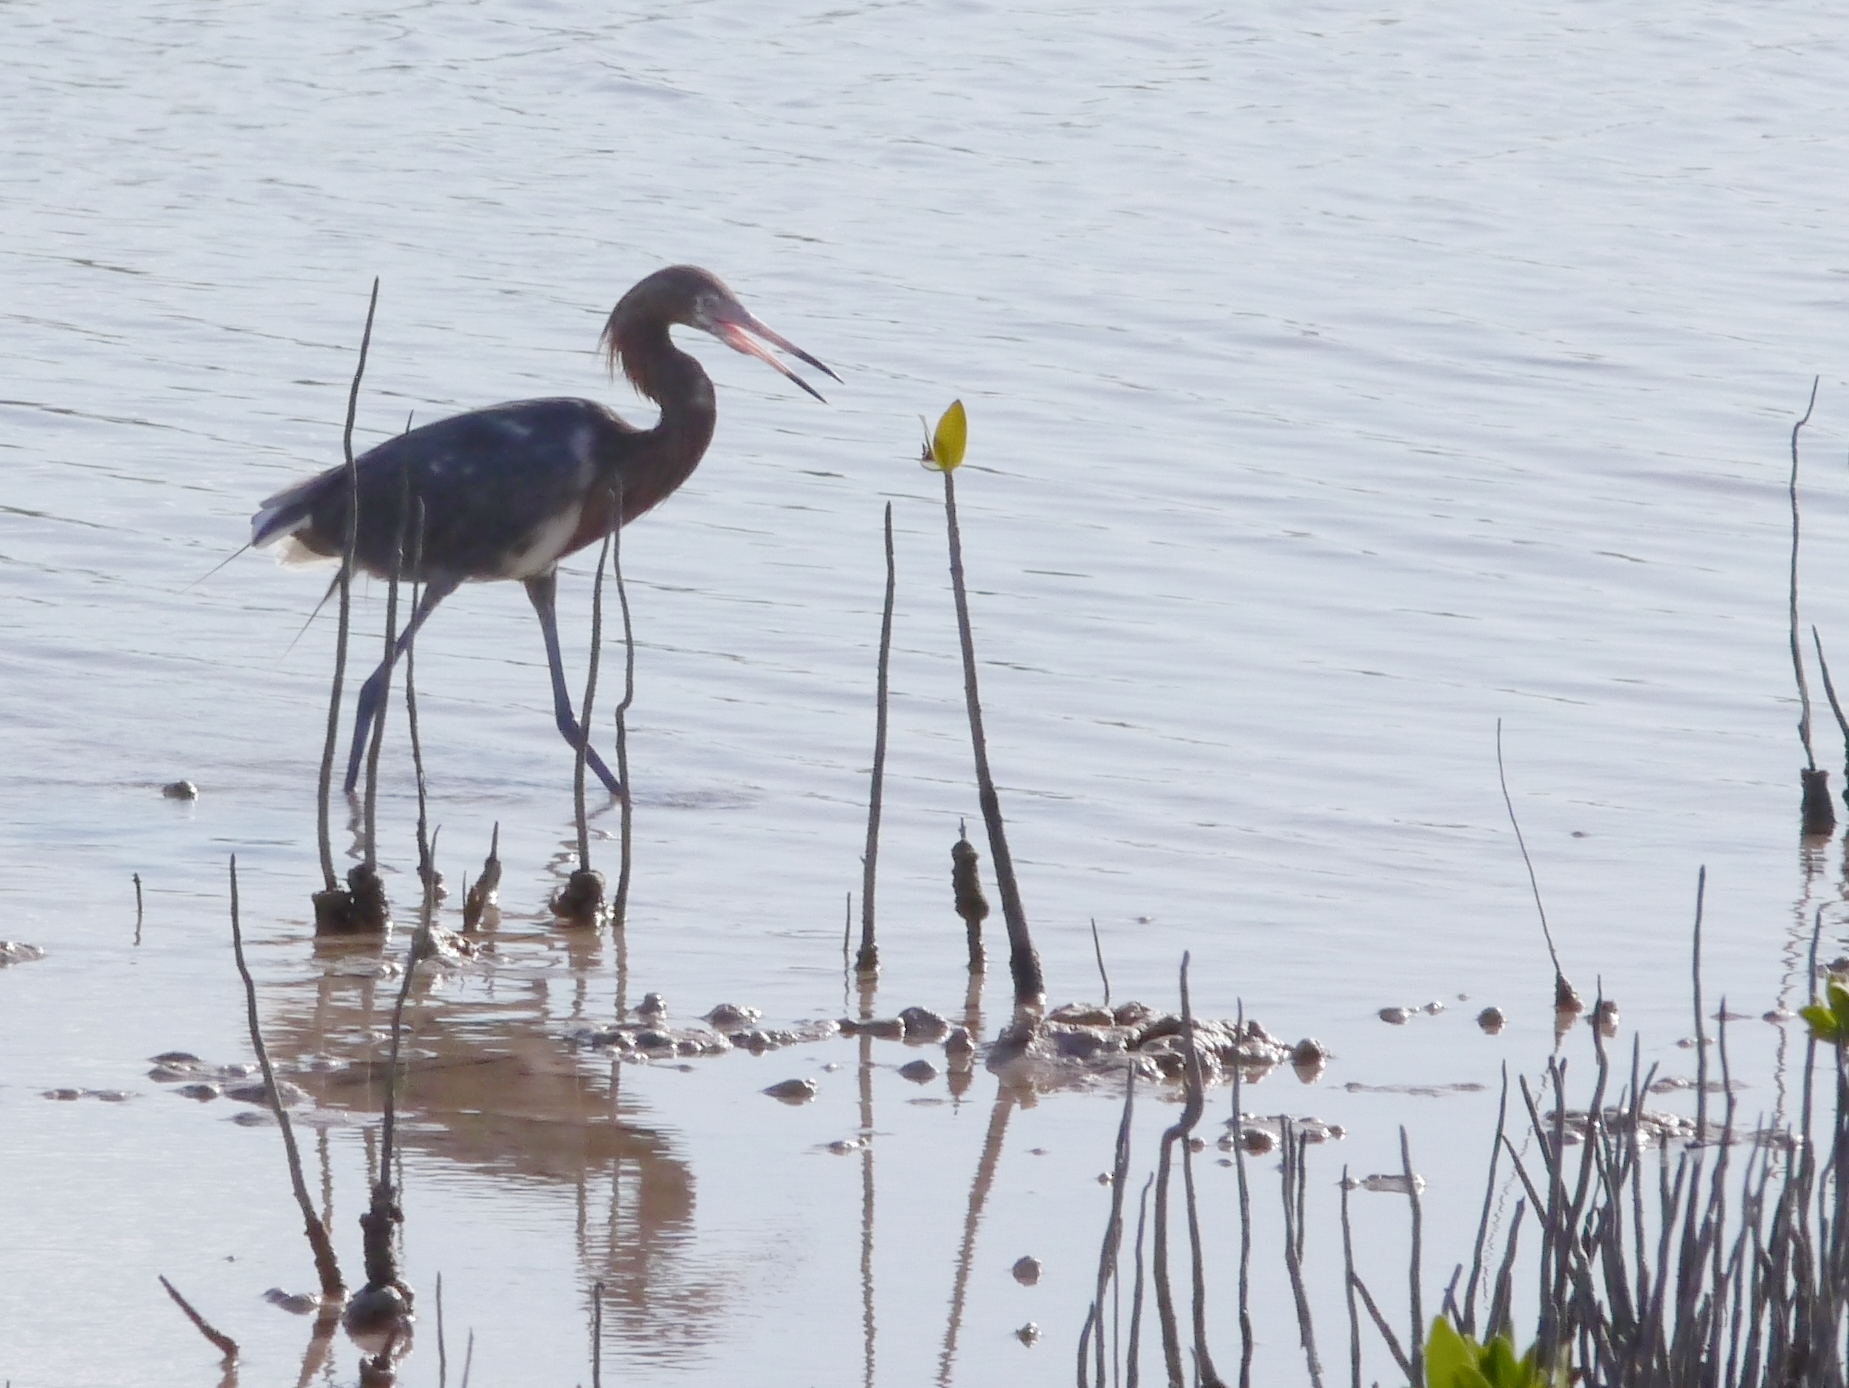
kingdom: Animalia
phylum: Chordata
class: Aves
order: Pelecaniformes
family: Ardeidae
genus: Egretta
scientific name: Egretta rufescens
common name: Reddish egret
